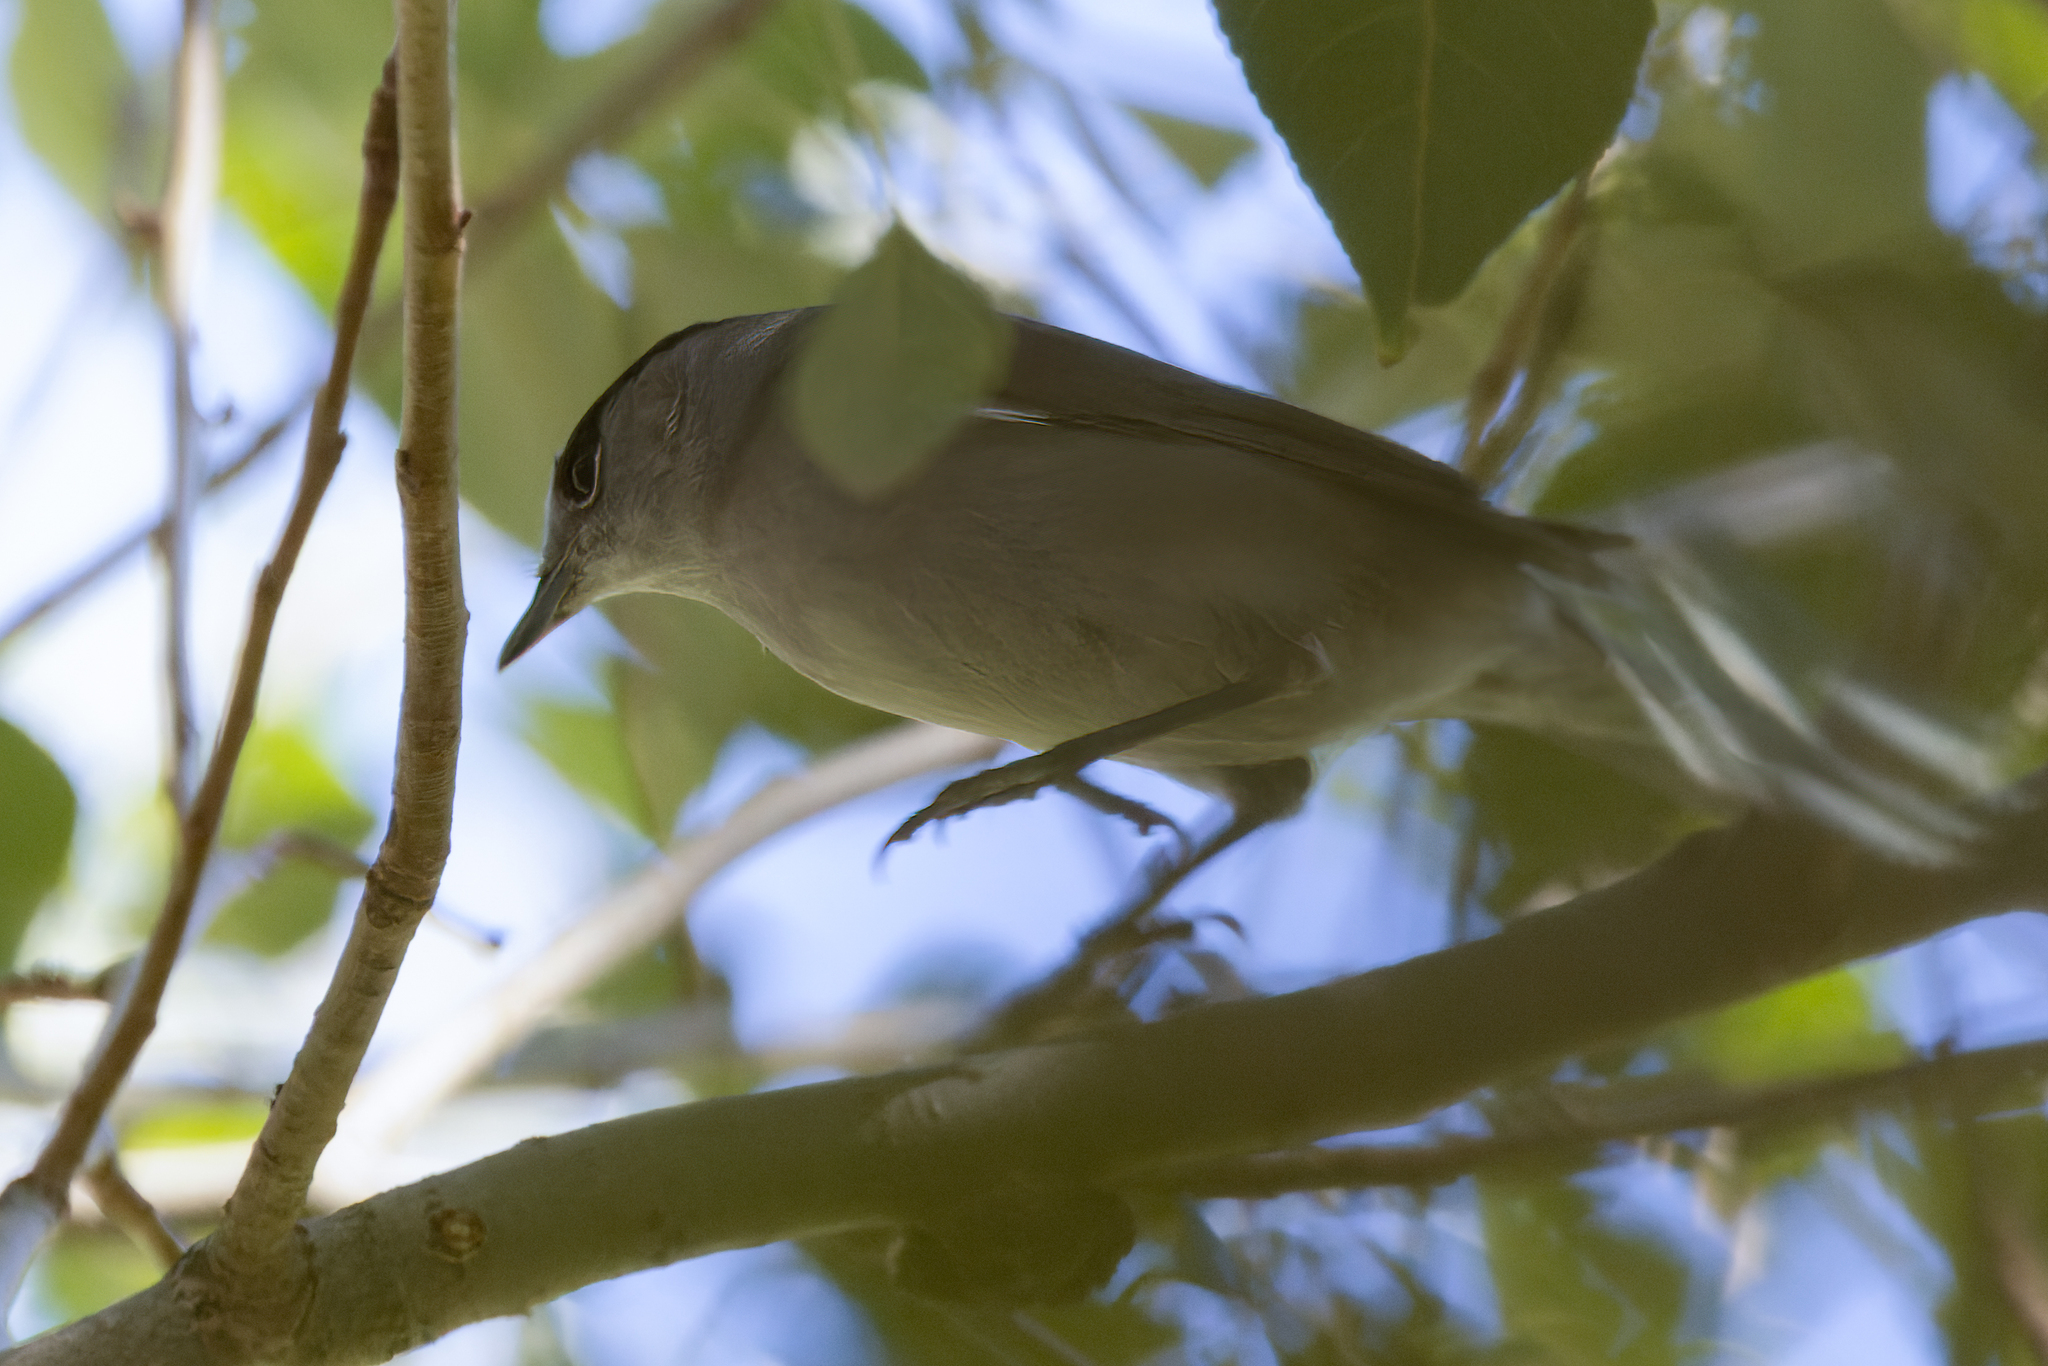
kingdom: Animalia
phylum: Chordata
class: Aves
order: Passeriformes
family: Sylviidae
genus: Sylvia
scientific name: Sylvia atricapilla
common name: Eurasian blackcap
